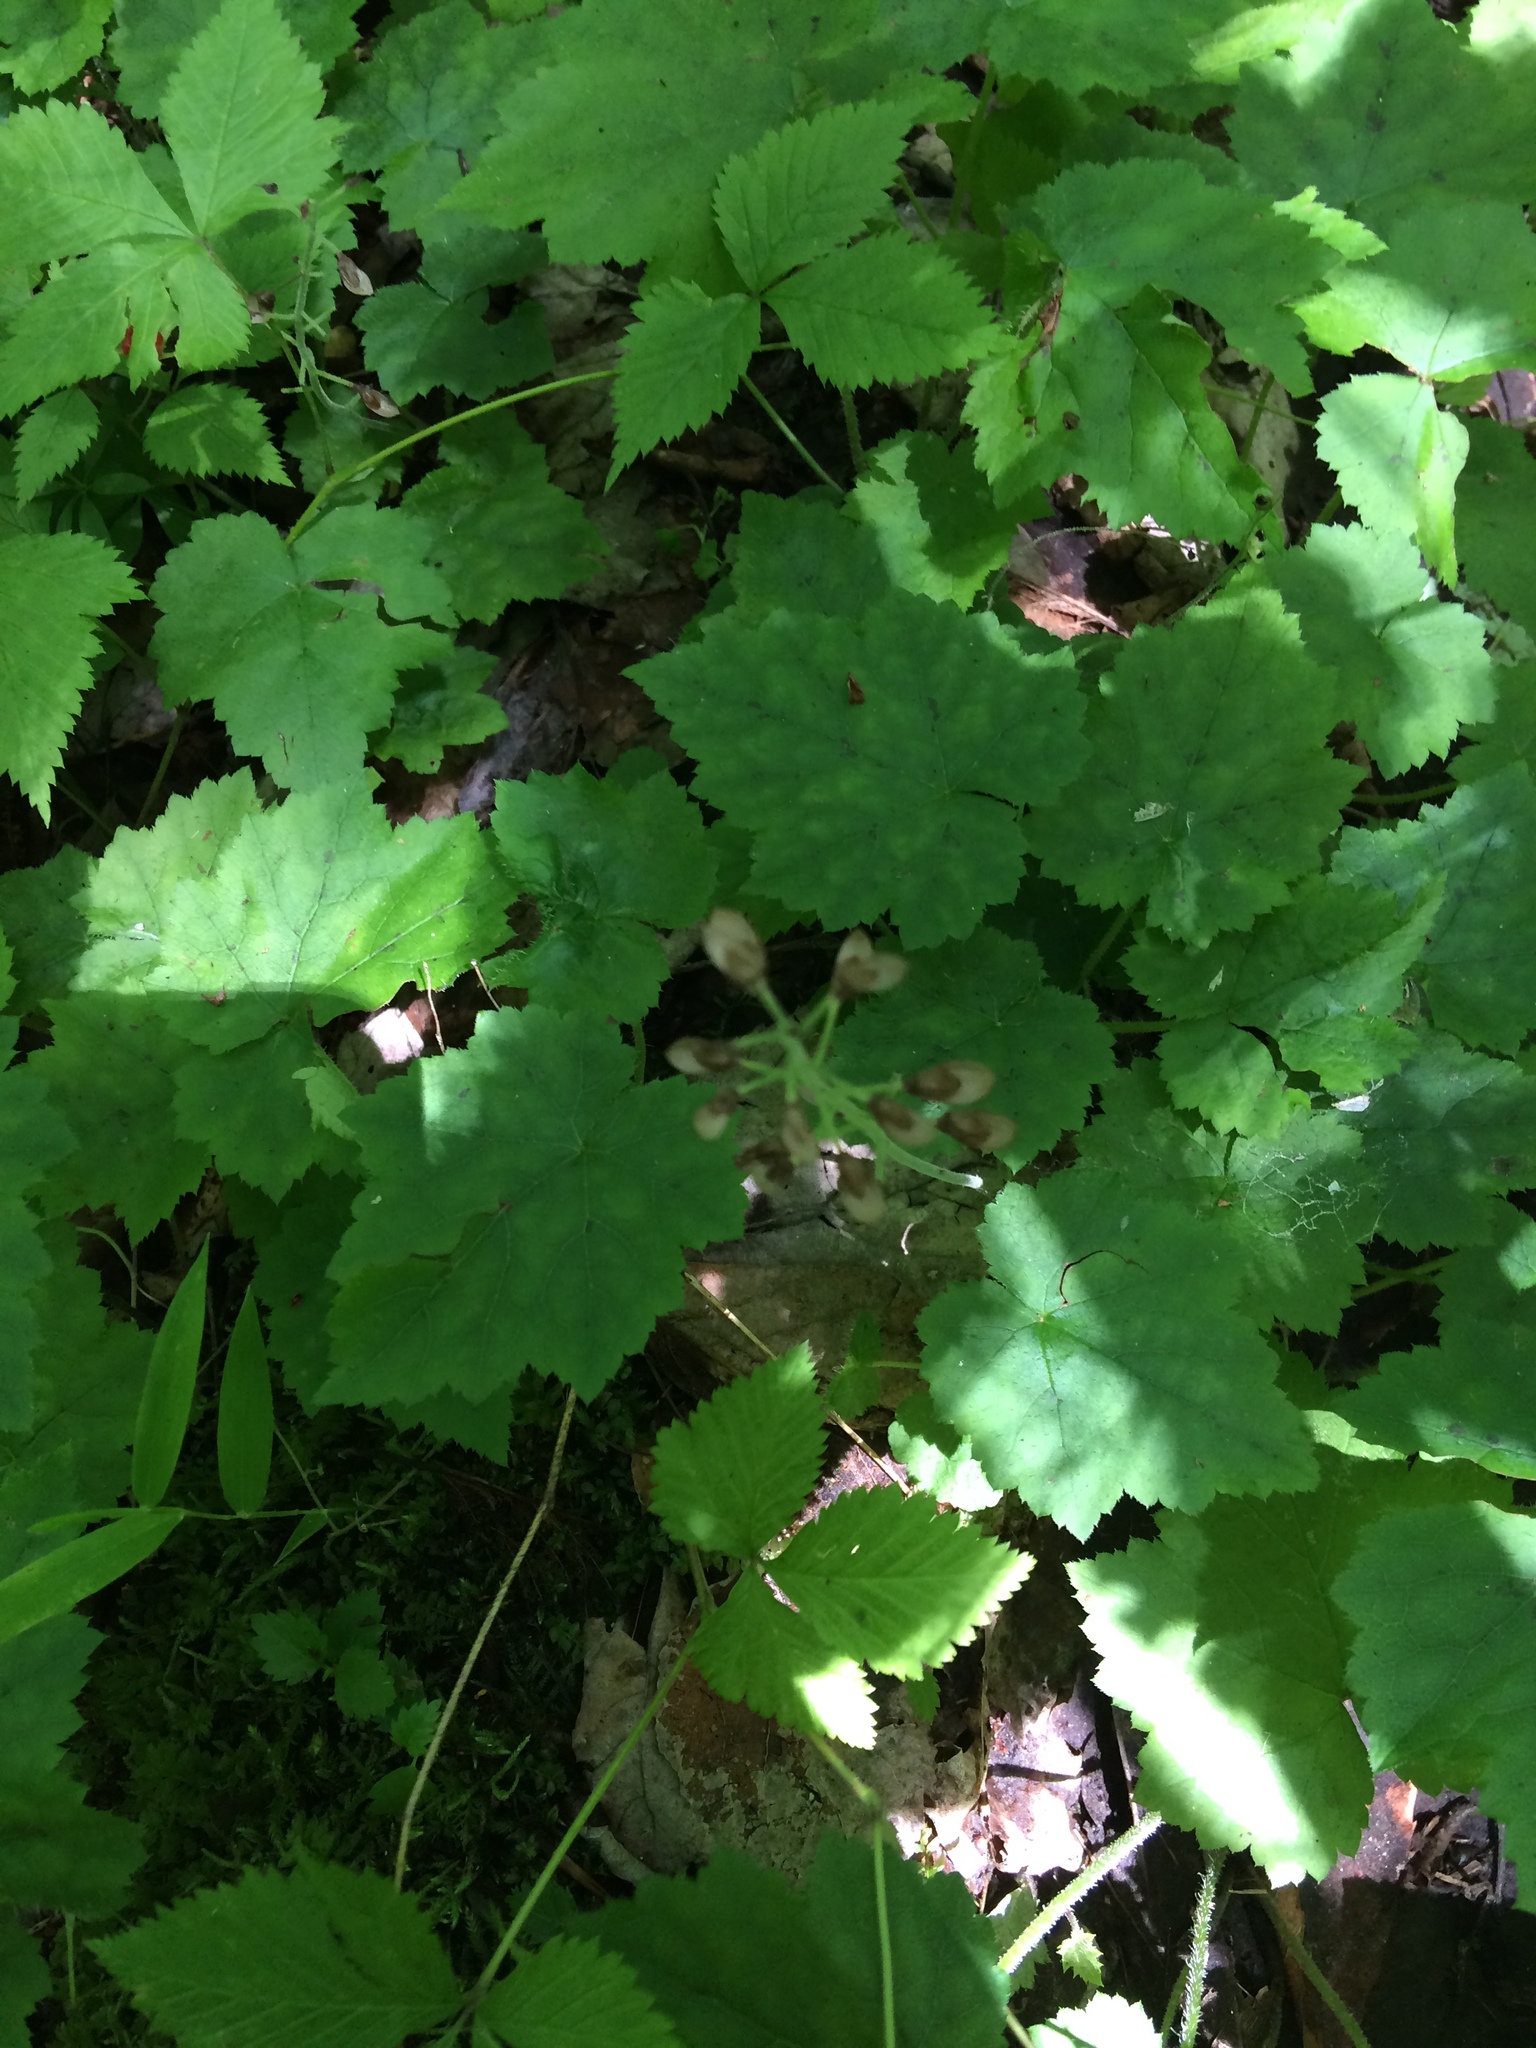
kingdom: Plantae
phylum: Tracheophyta
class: Magnoliopsida
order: Saxifragales
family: Saxifragaceae
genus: Tiarella
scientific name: Tiarella stolonifera
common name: Stoloniferous foamflower
